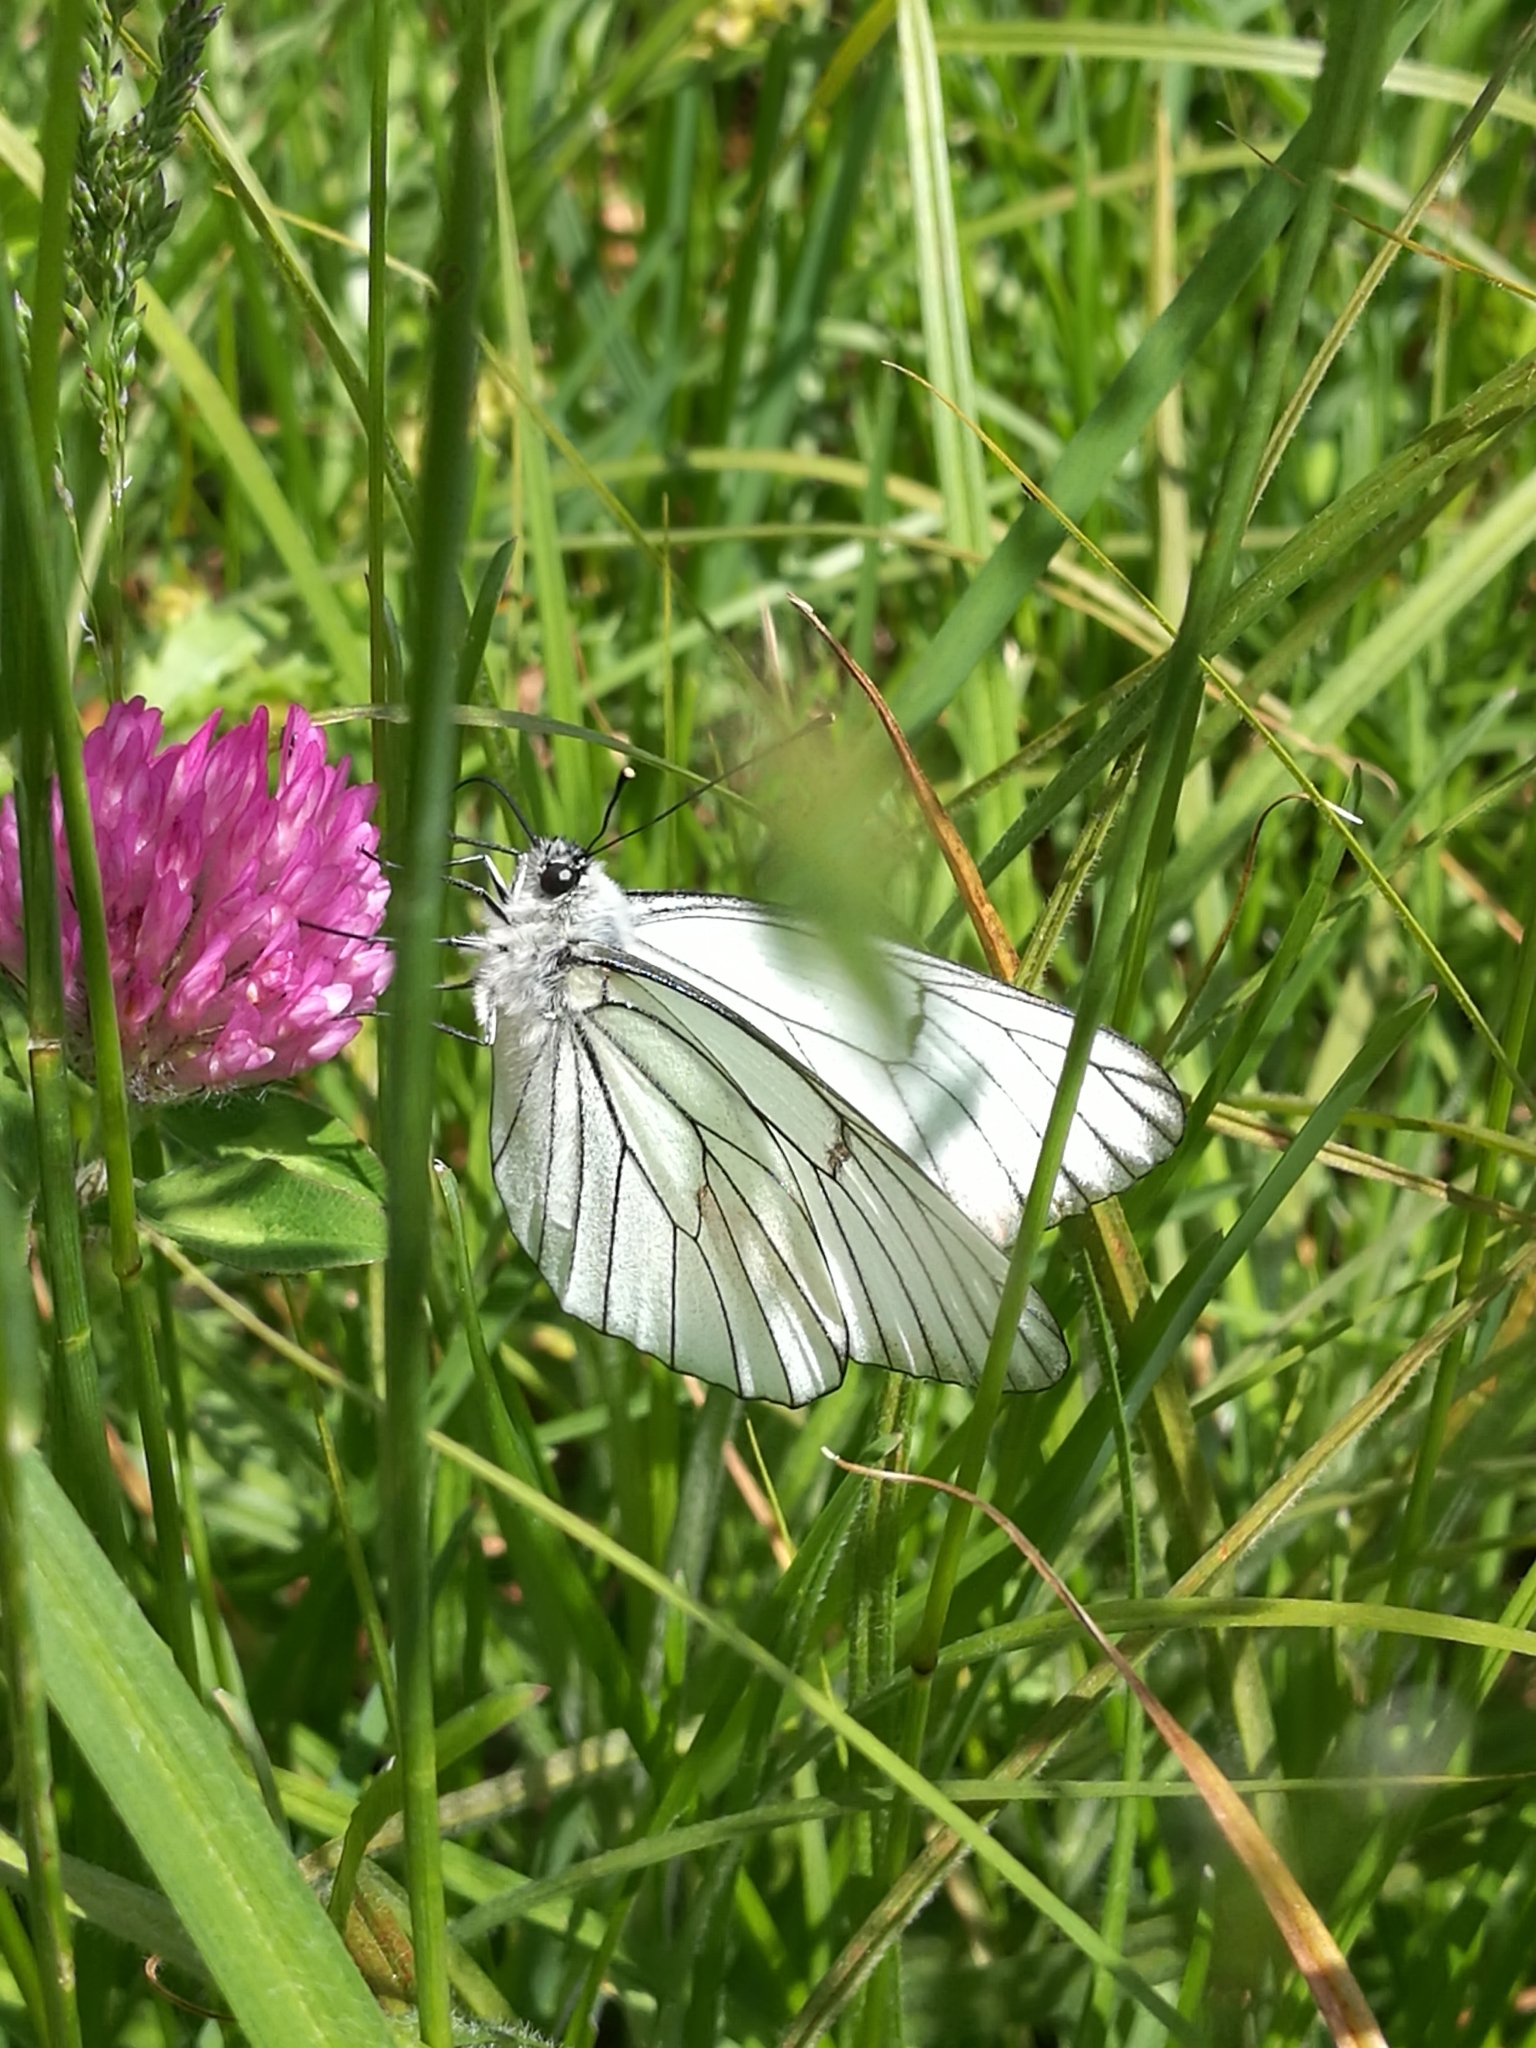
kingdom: Animalia
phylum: Arthropoda
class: Insecta
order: Lepidoptera
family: Pieridae
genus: Aporia
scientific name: Aporia crataegi
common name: Black-veined white
